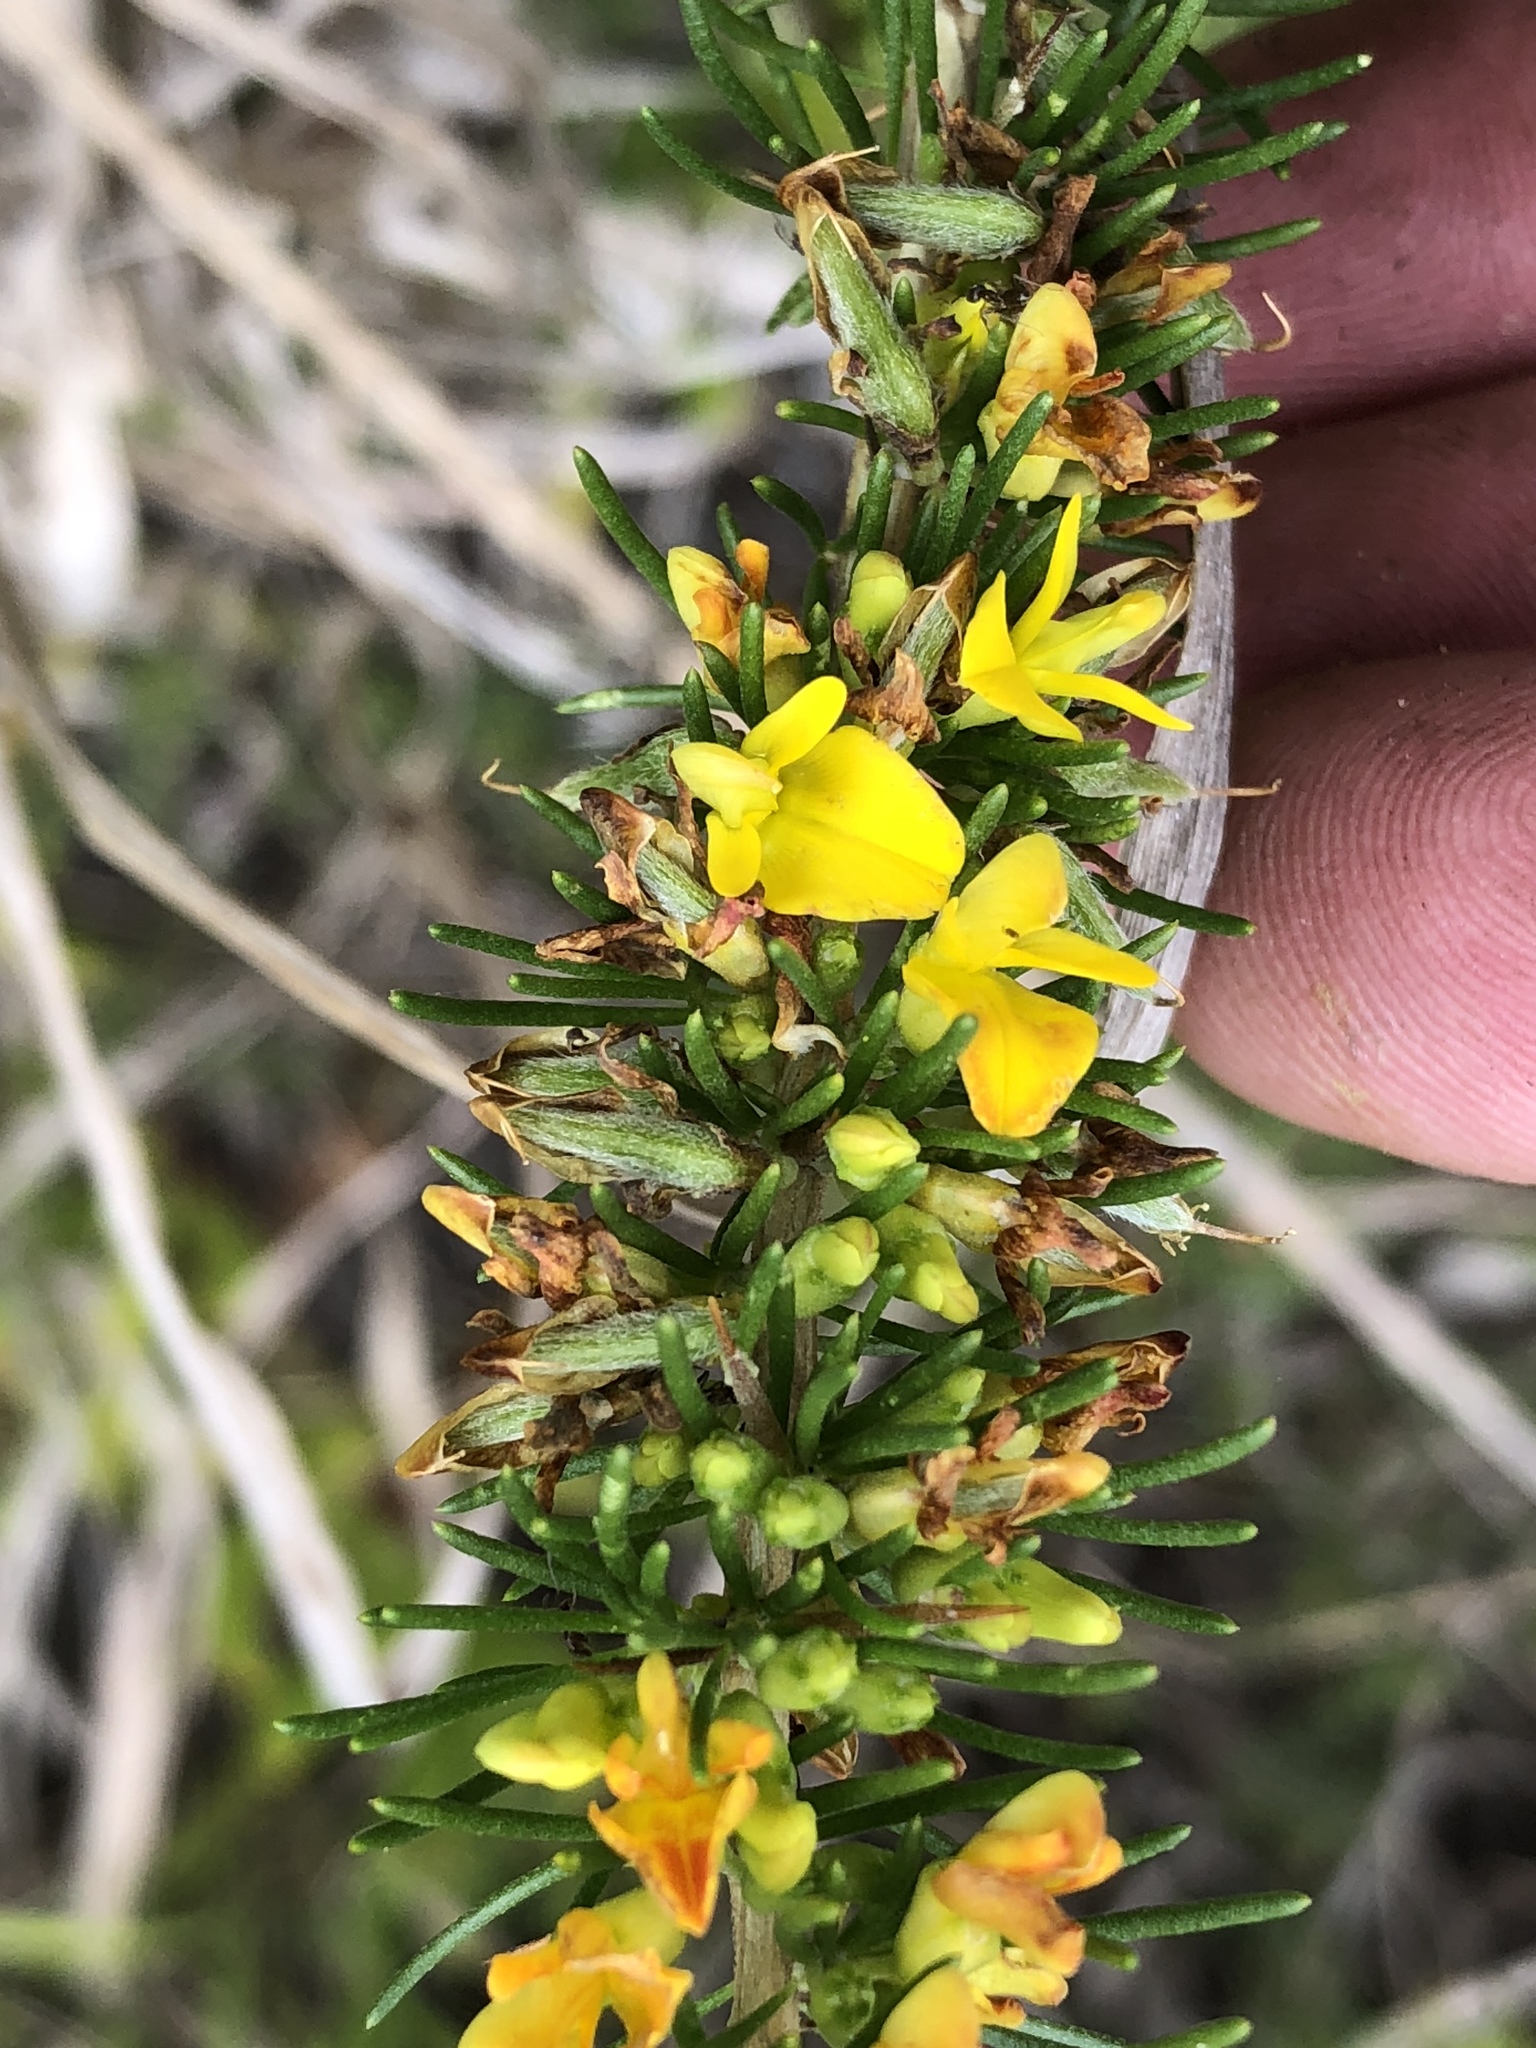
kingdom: Plantae
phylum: Tracheophyta
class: Magnoliopsida
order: Fabales
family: Fabaceae
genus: Aspalathus
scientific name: Aspalathus spinosa
